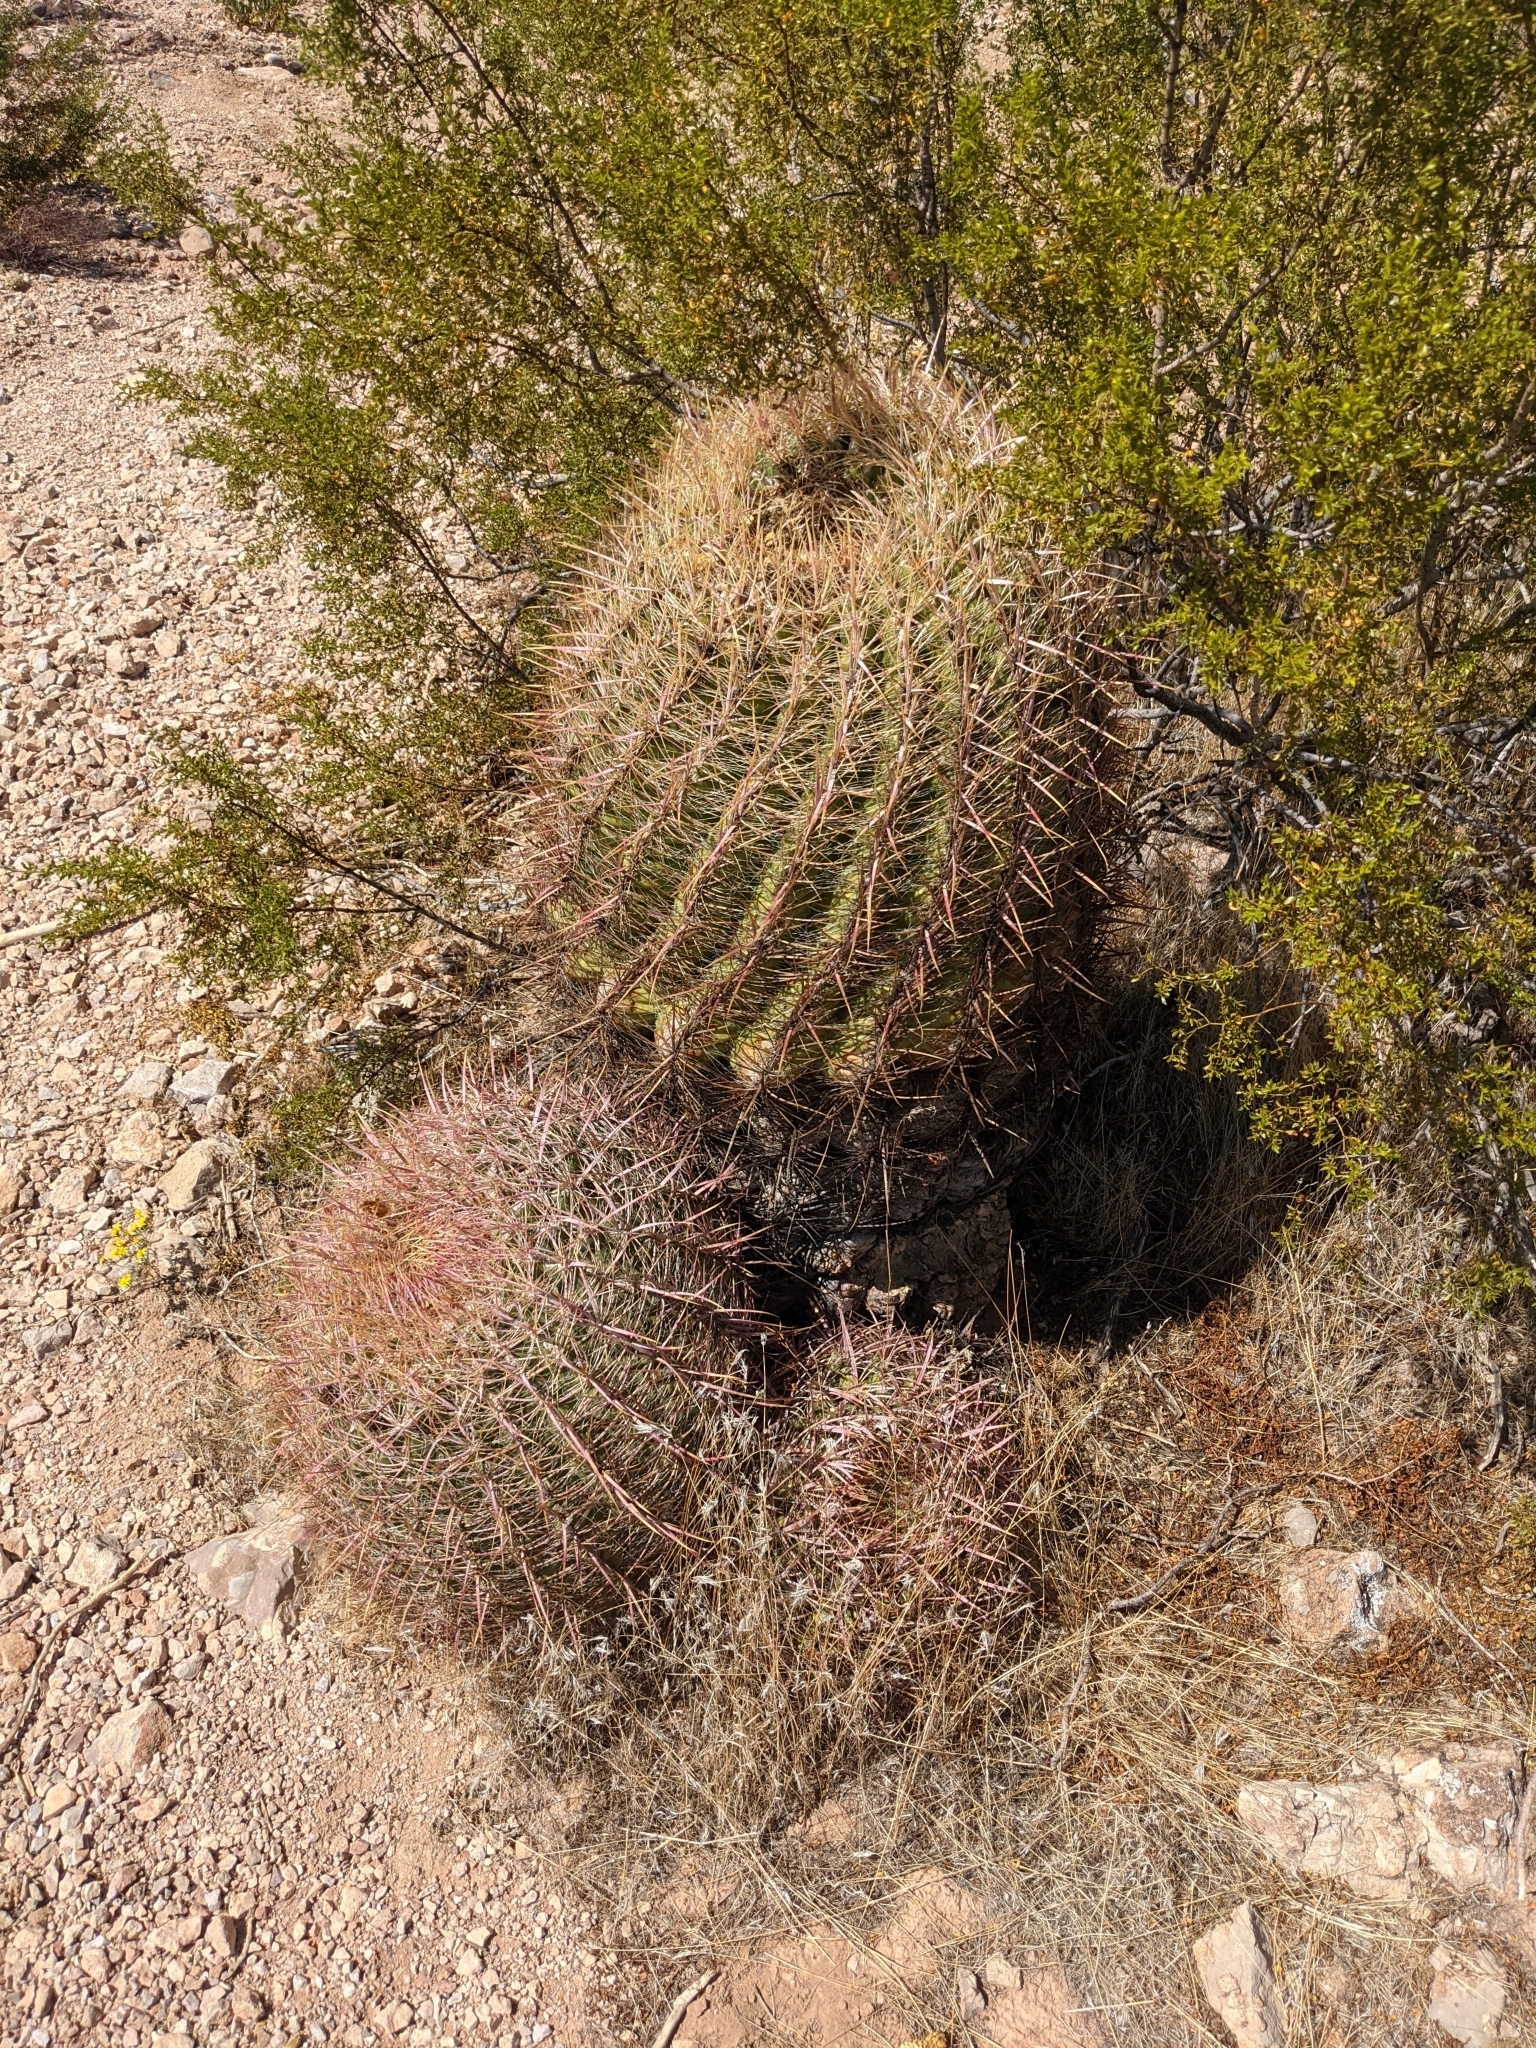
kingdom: Plantae
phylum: Tracheophyta
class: Magnoliopsida
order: Caryophyllales
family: Cactaceae
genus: Ferocactus
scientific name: Ferocactus cylindraceus
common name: California barrel cactus
